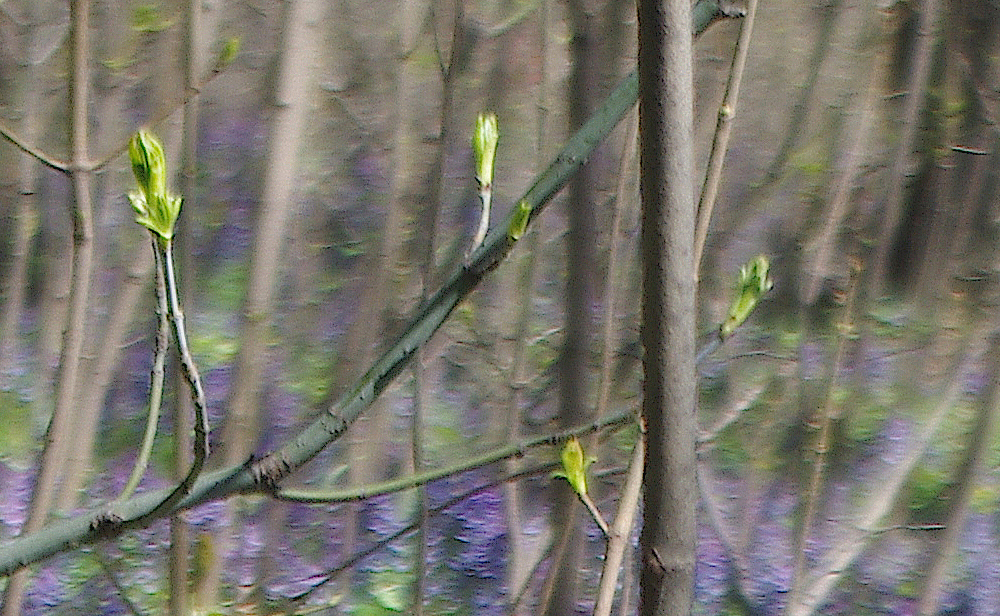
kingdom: Plantae
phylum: Tracheophyta
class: Magnoliopsida
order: Sapindales
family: Sapindaceae
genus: Acer
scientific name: Acer negundo
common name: Ashleaf maple
